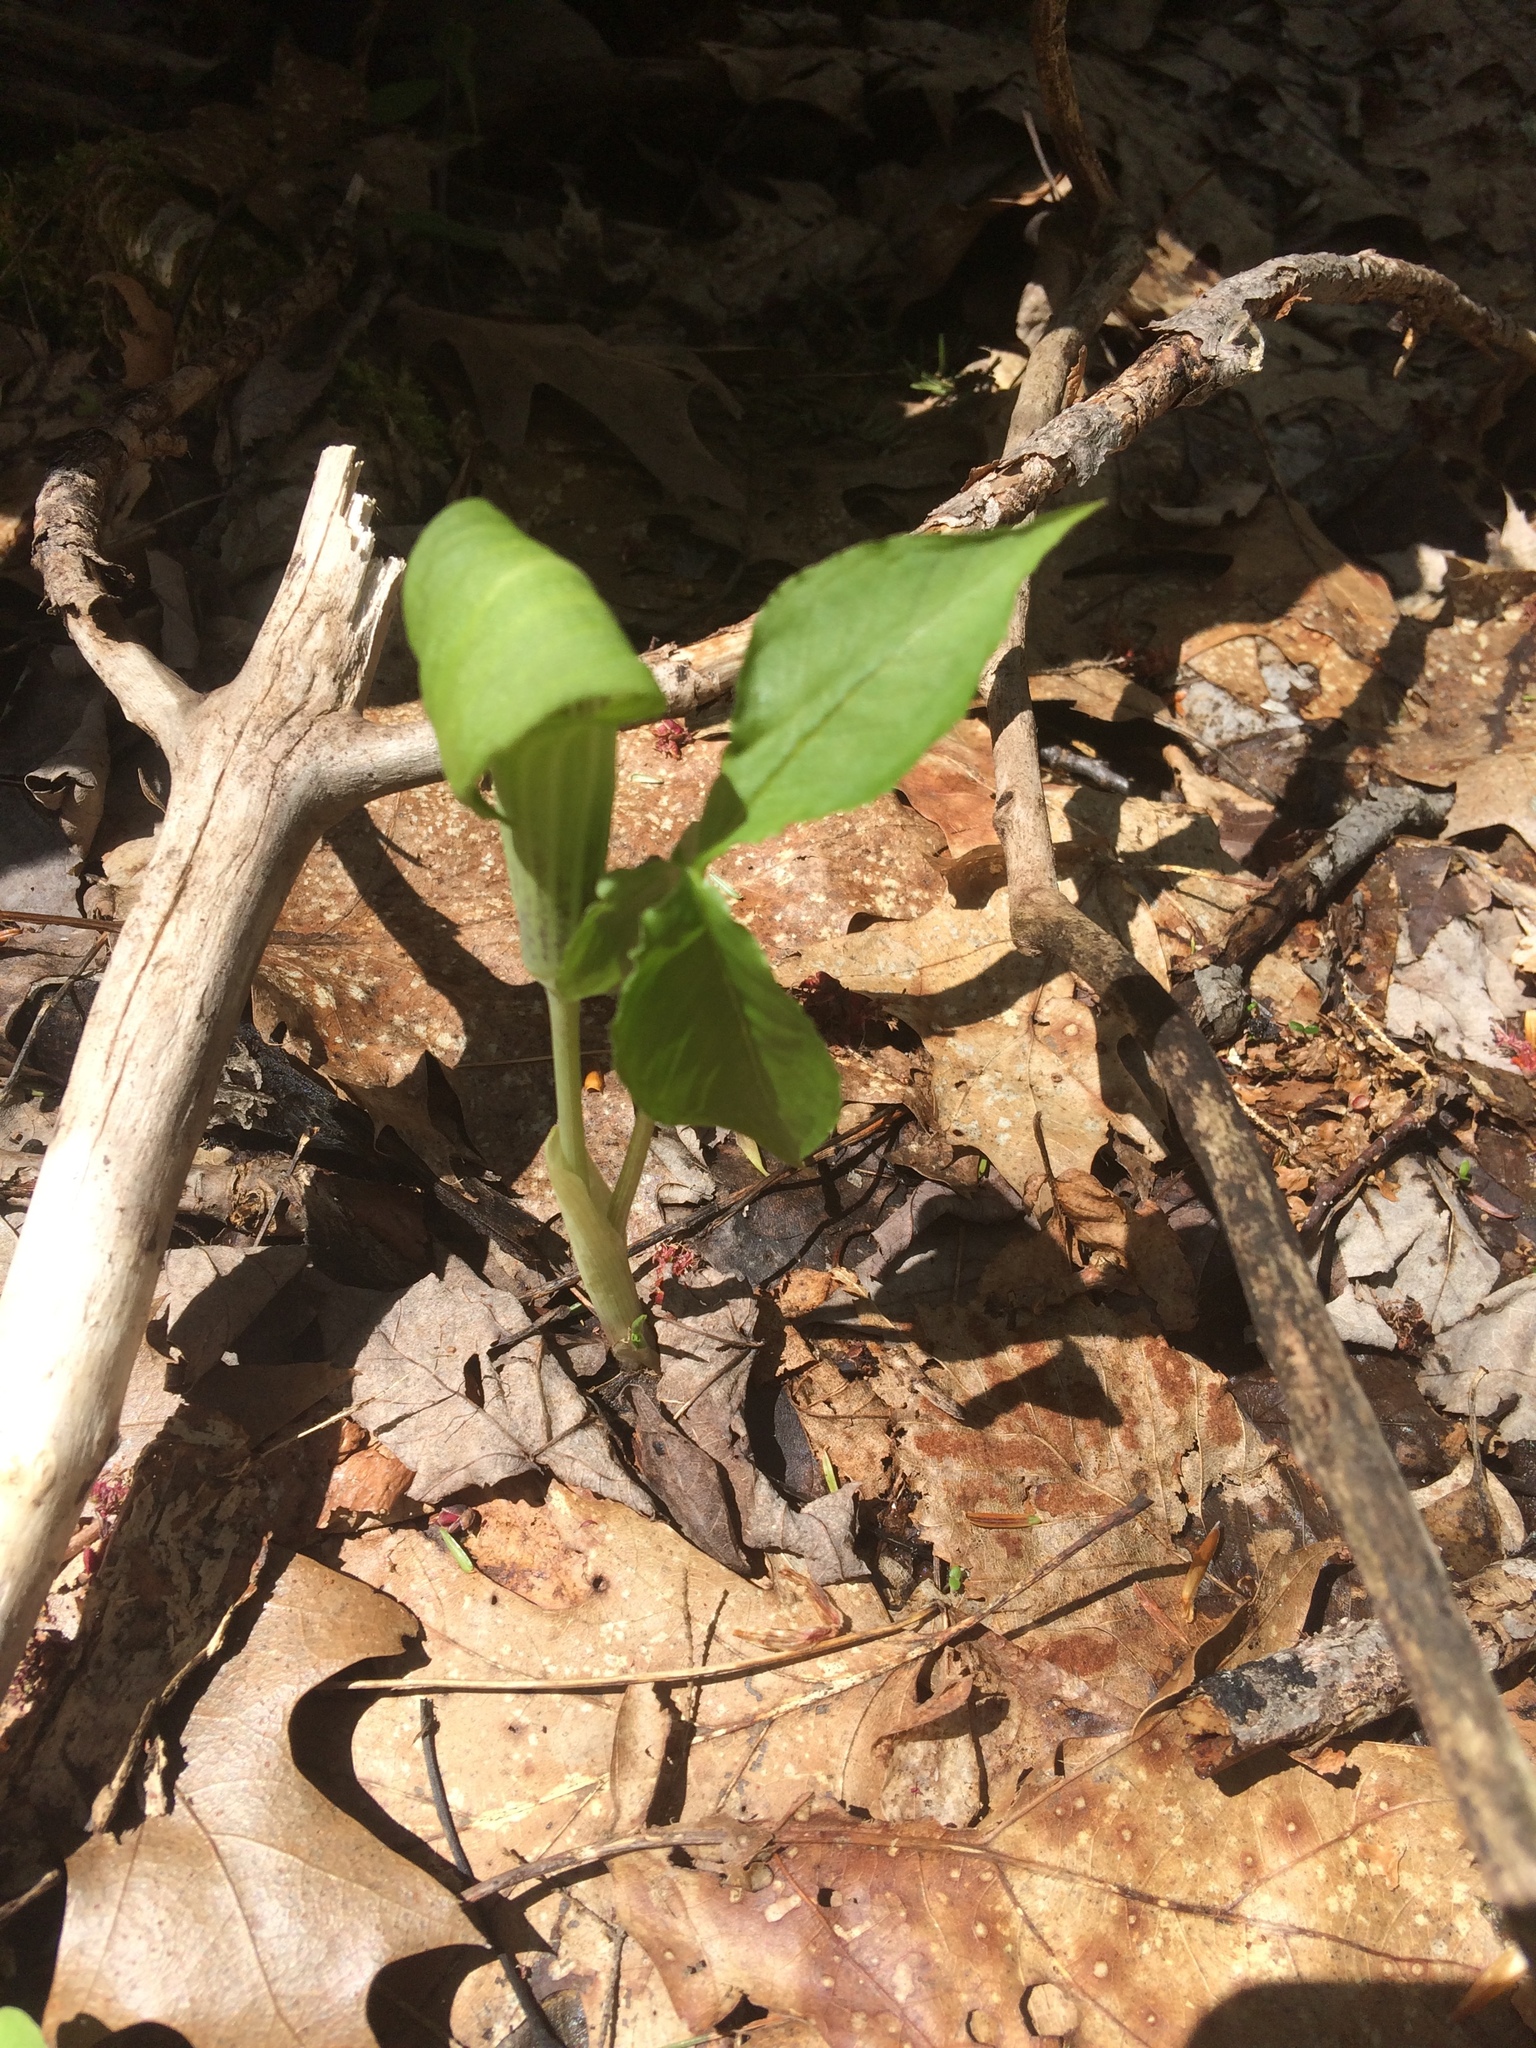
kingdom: Plantae
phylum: Tracheophyta
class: Liliopsida
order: Alismatales
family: Araceae
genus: Arisaema
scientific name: Arisaema triphyllum
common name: Jack-in-the-pulpit
